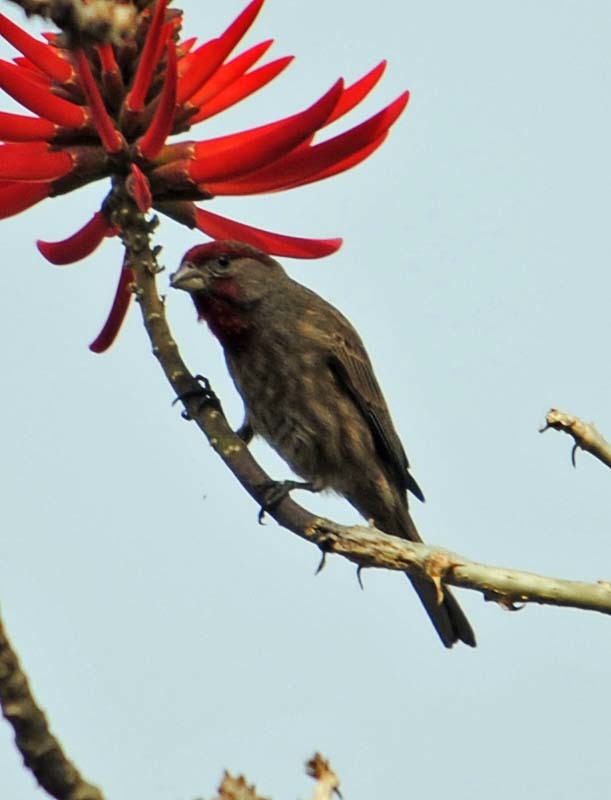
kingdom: Animalia
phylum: Chordata
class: Aves
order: Passeriformes
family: Fringillidae
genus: Haemorhous
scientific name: Haemorhous mexicanus
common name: House finch
